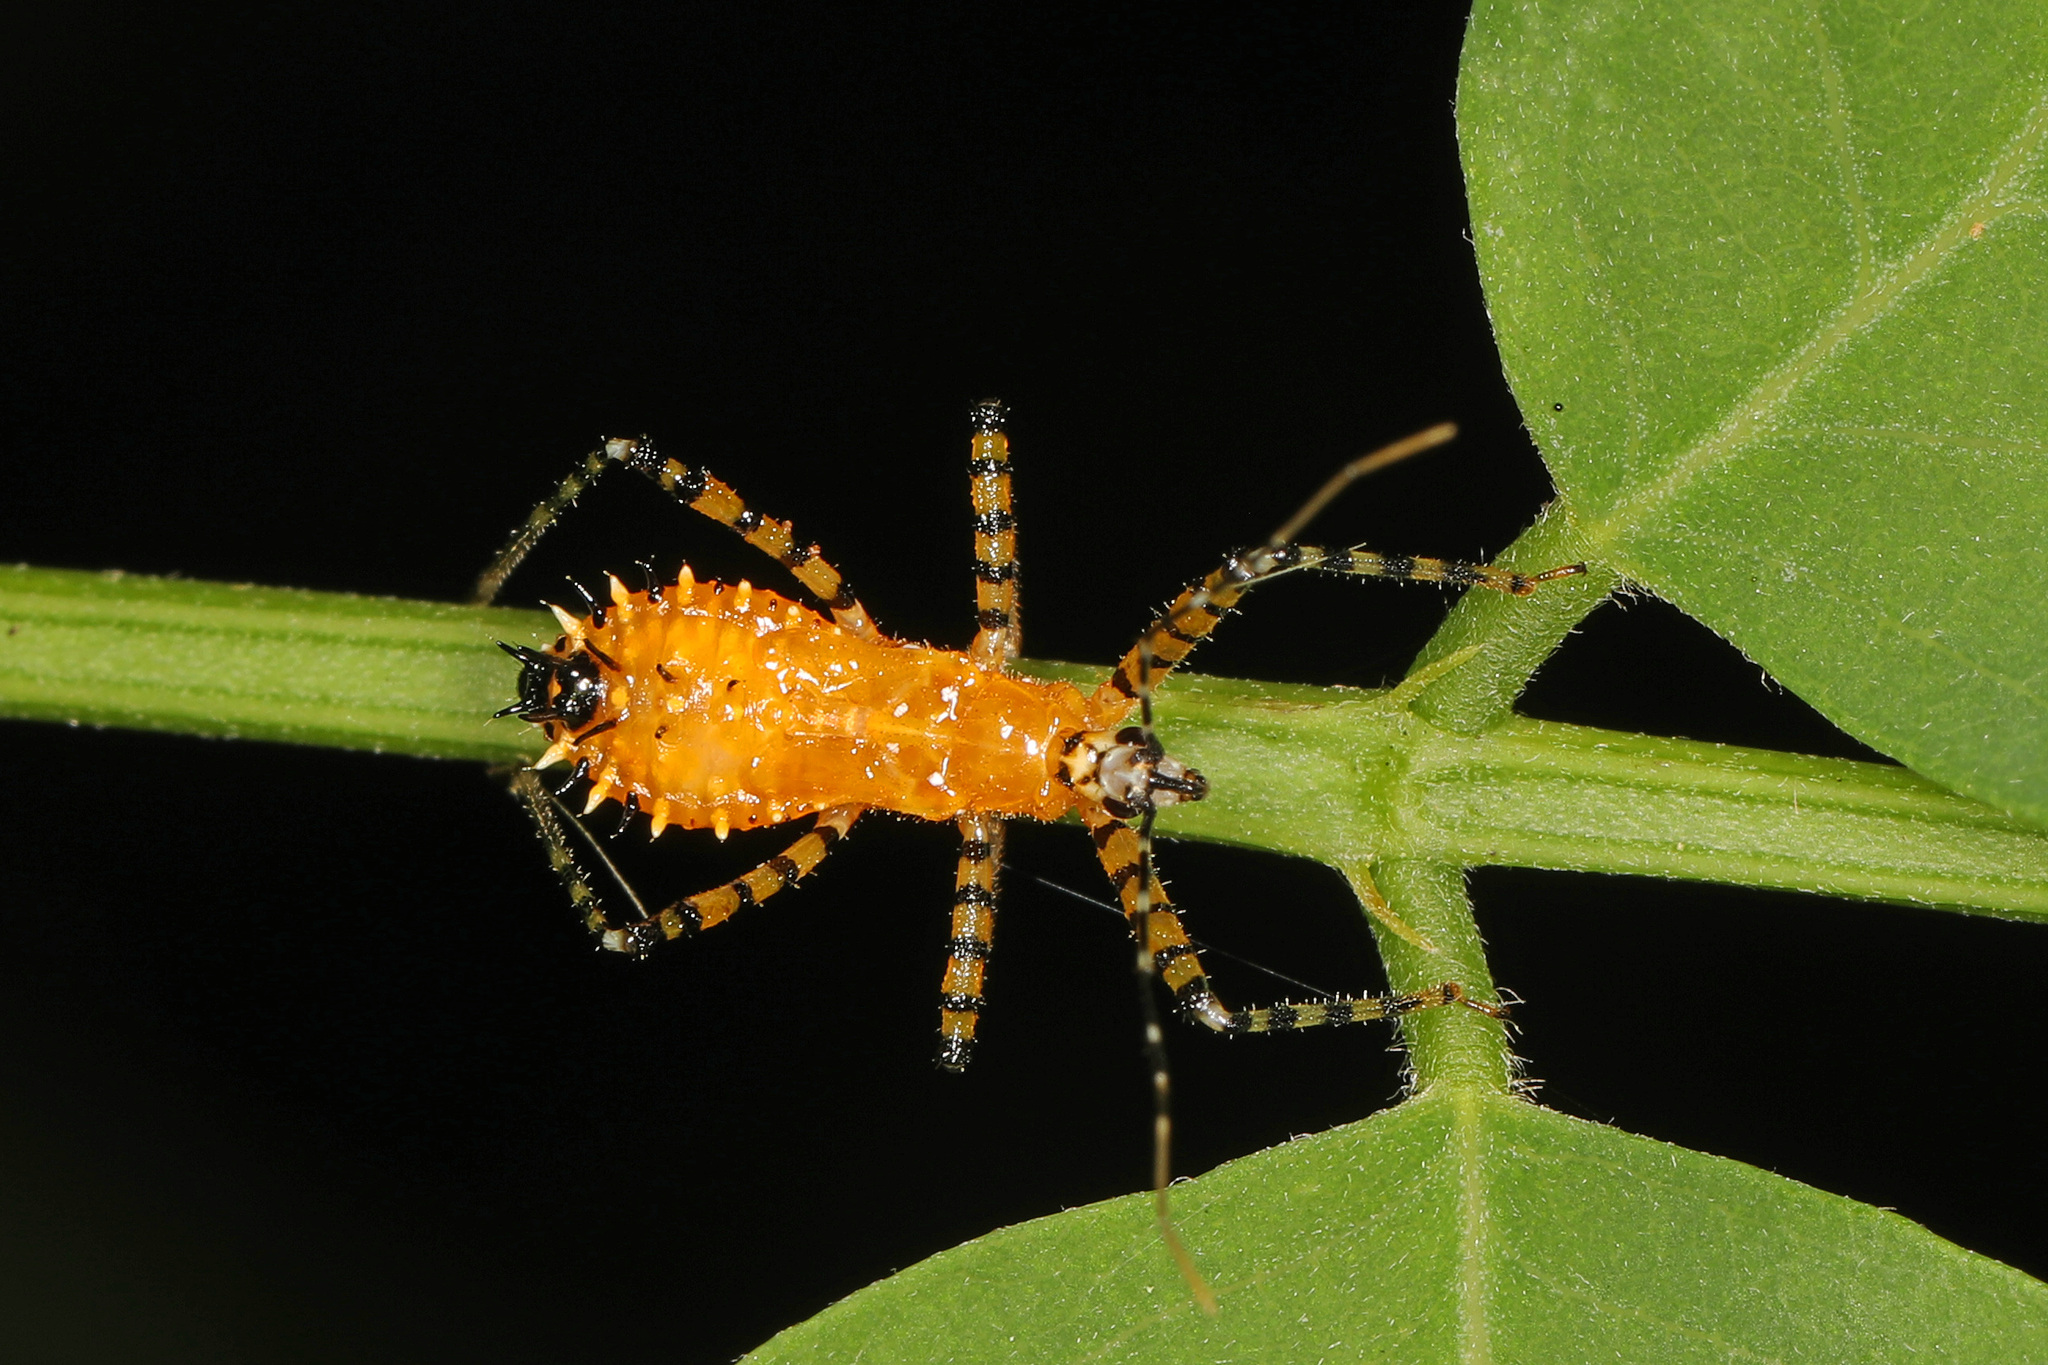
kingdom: Animalia
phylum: Arthropoda
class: Insecta
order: Hemiptera
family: Reduviidae
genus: Pselliopus
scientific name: Pselliopus barberi
